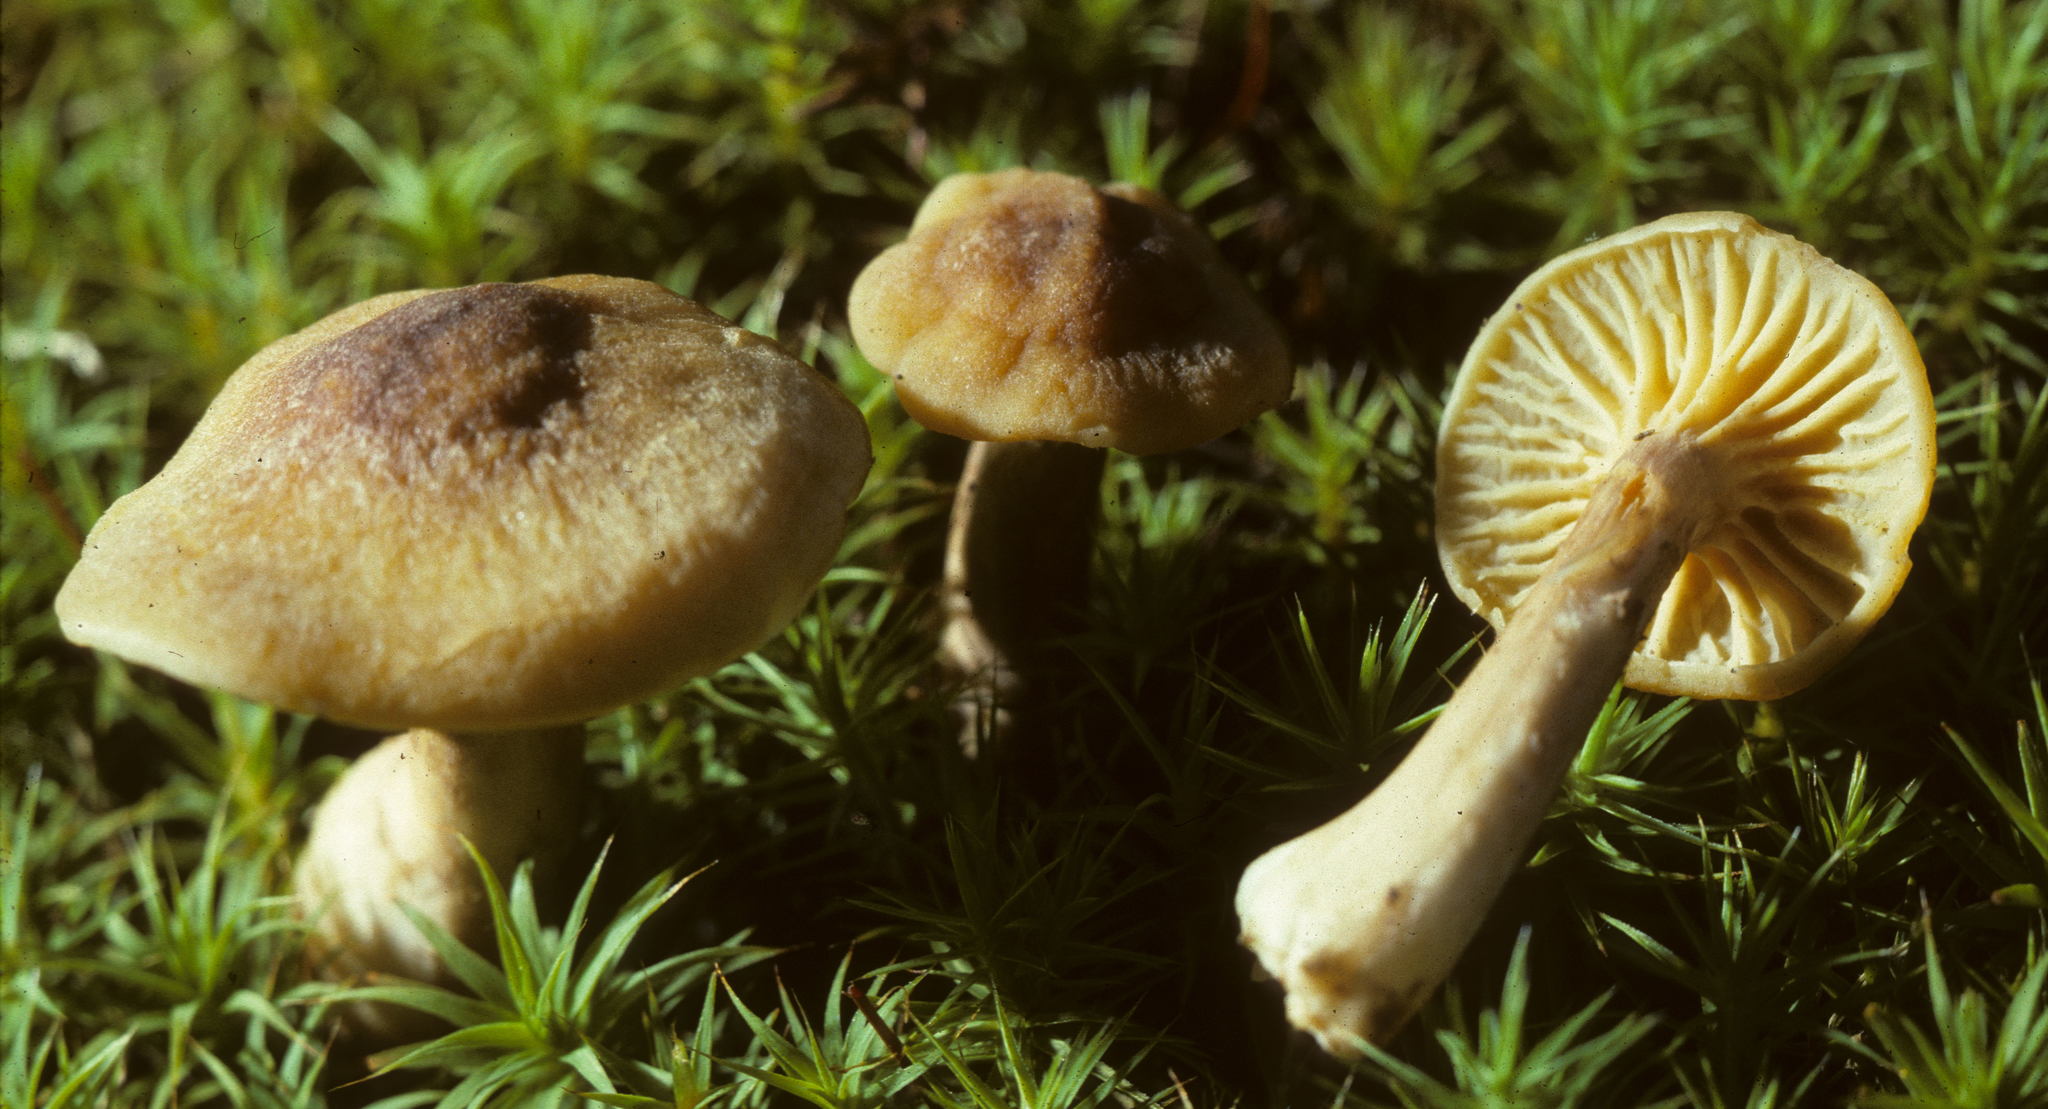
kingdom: Fungi
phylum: Basidiomycota
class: Agaricomycetes
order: Cantharellales
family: Hydnaceae
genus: Cantharellus
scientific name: Cantharellus appalachiensis
